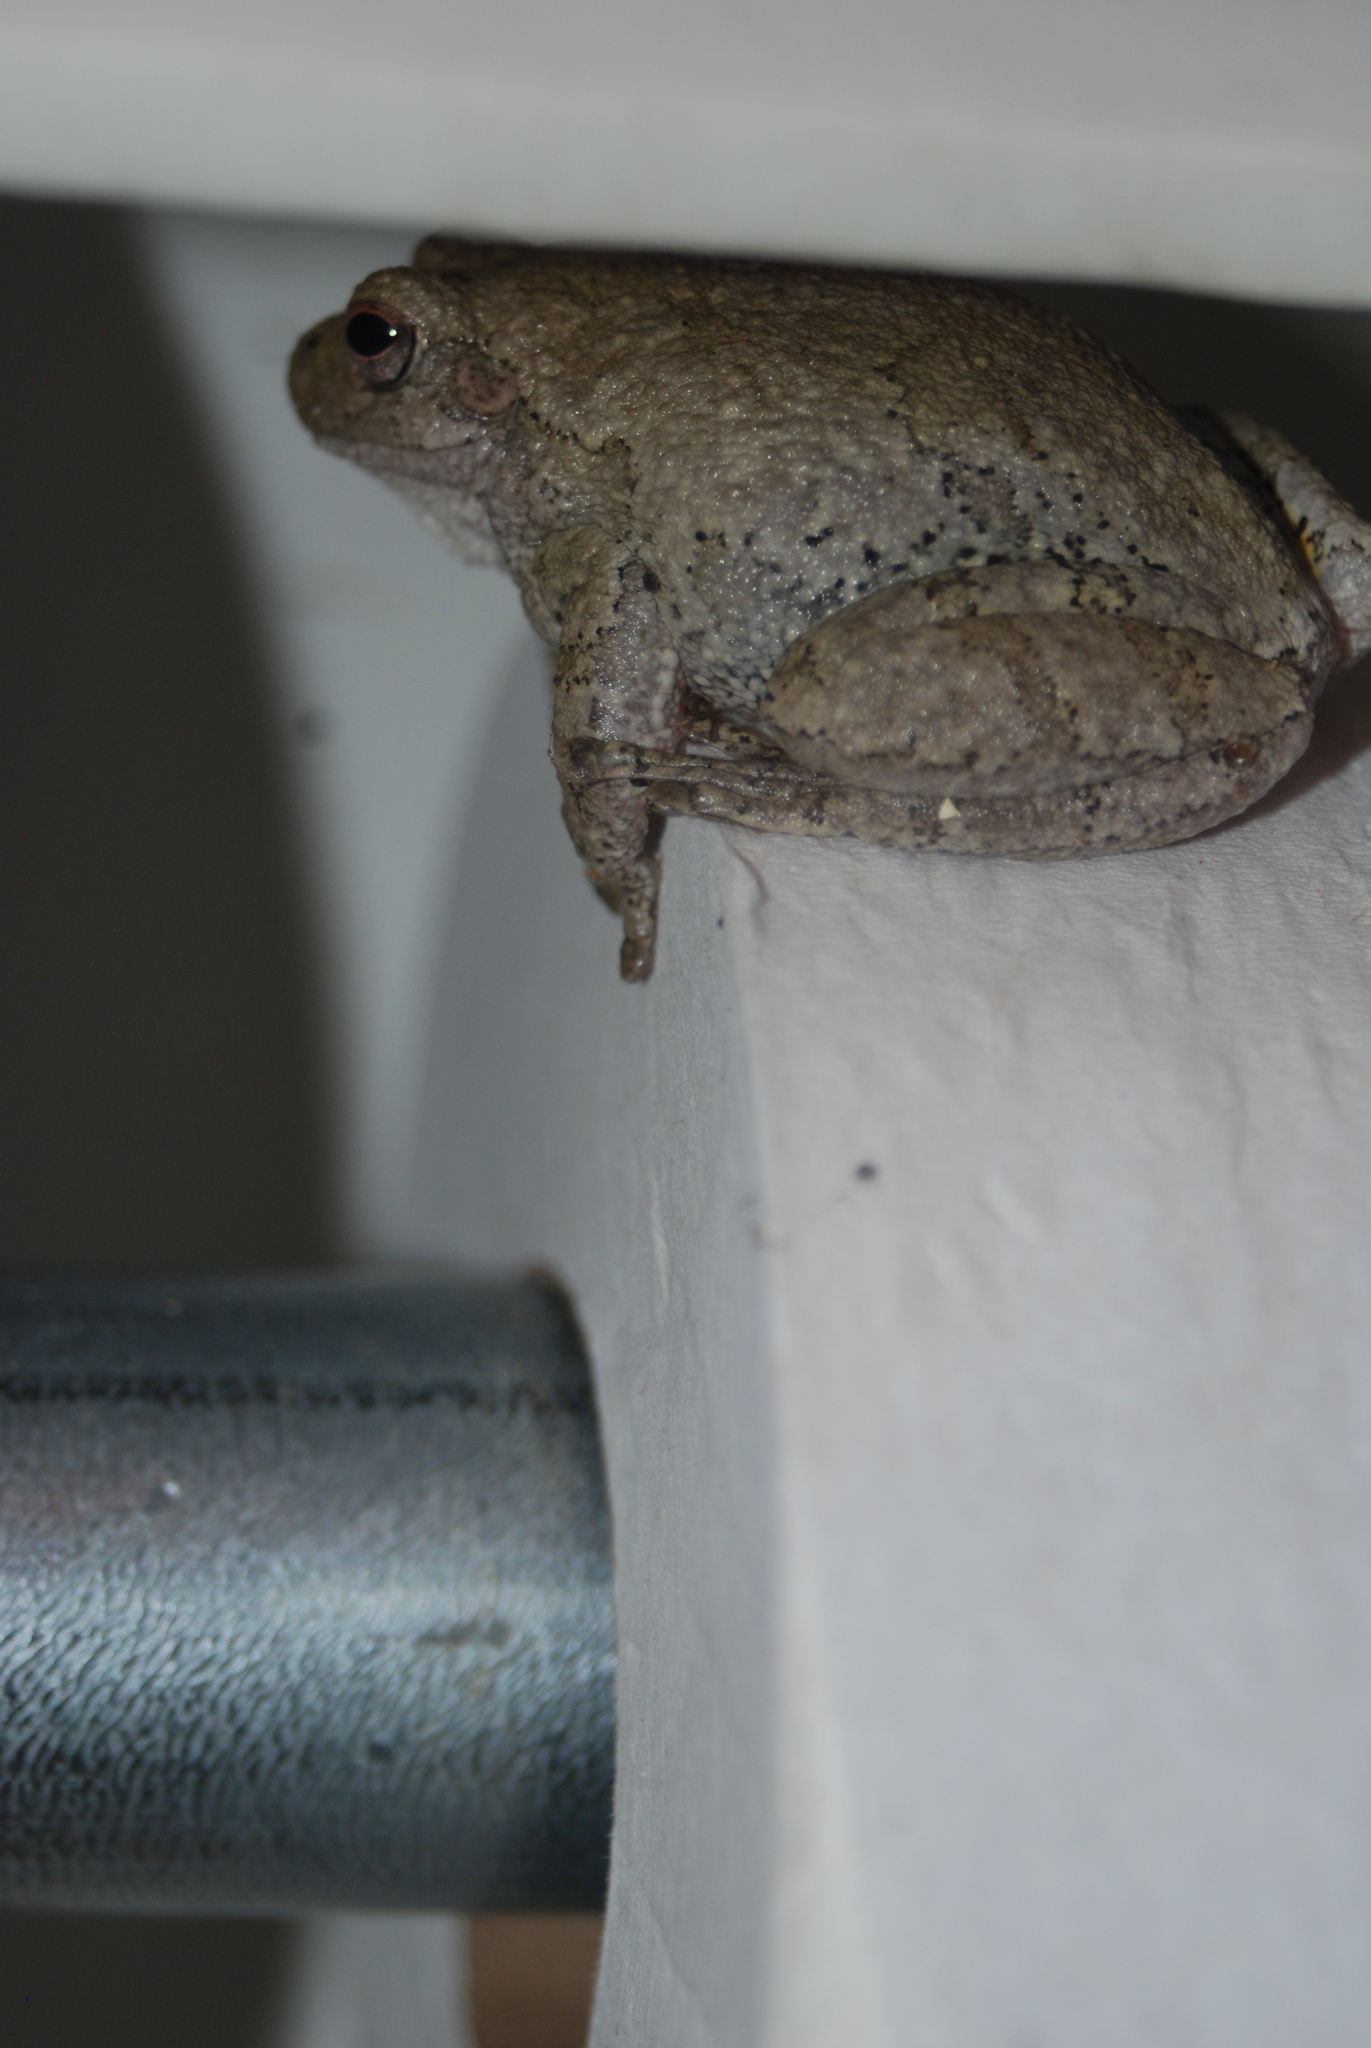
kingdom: Animalia
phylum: Chordata
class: Amphibia
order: Anura
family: Hylidae
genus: Hyla
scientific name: Hyla
